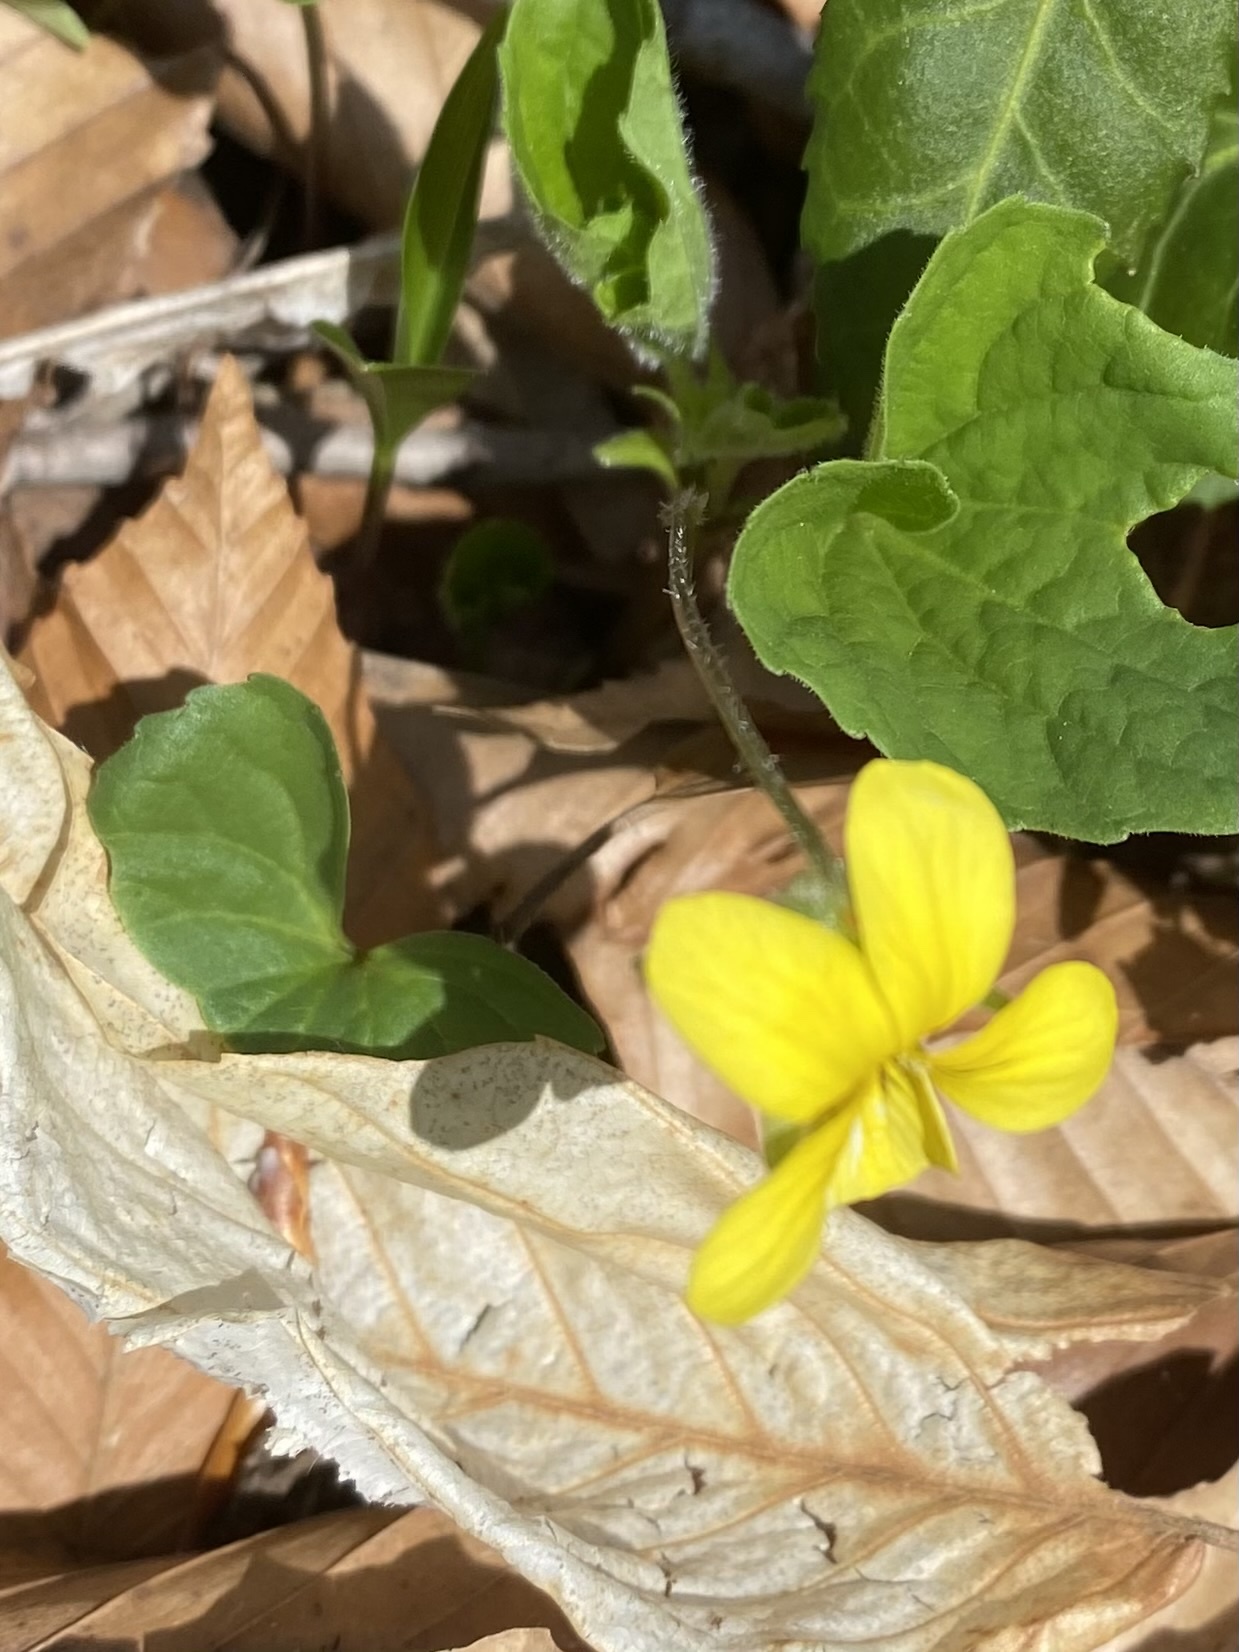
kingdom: Plantae
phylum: Tracheophyta
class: Magnoliopsida
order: Malpighiales
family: Violaceae
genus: Viola
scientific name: Viola eriocarpa
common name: Smooth yellow violet
